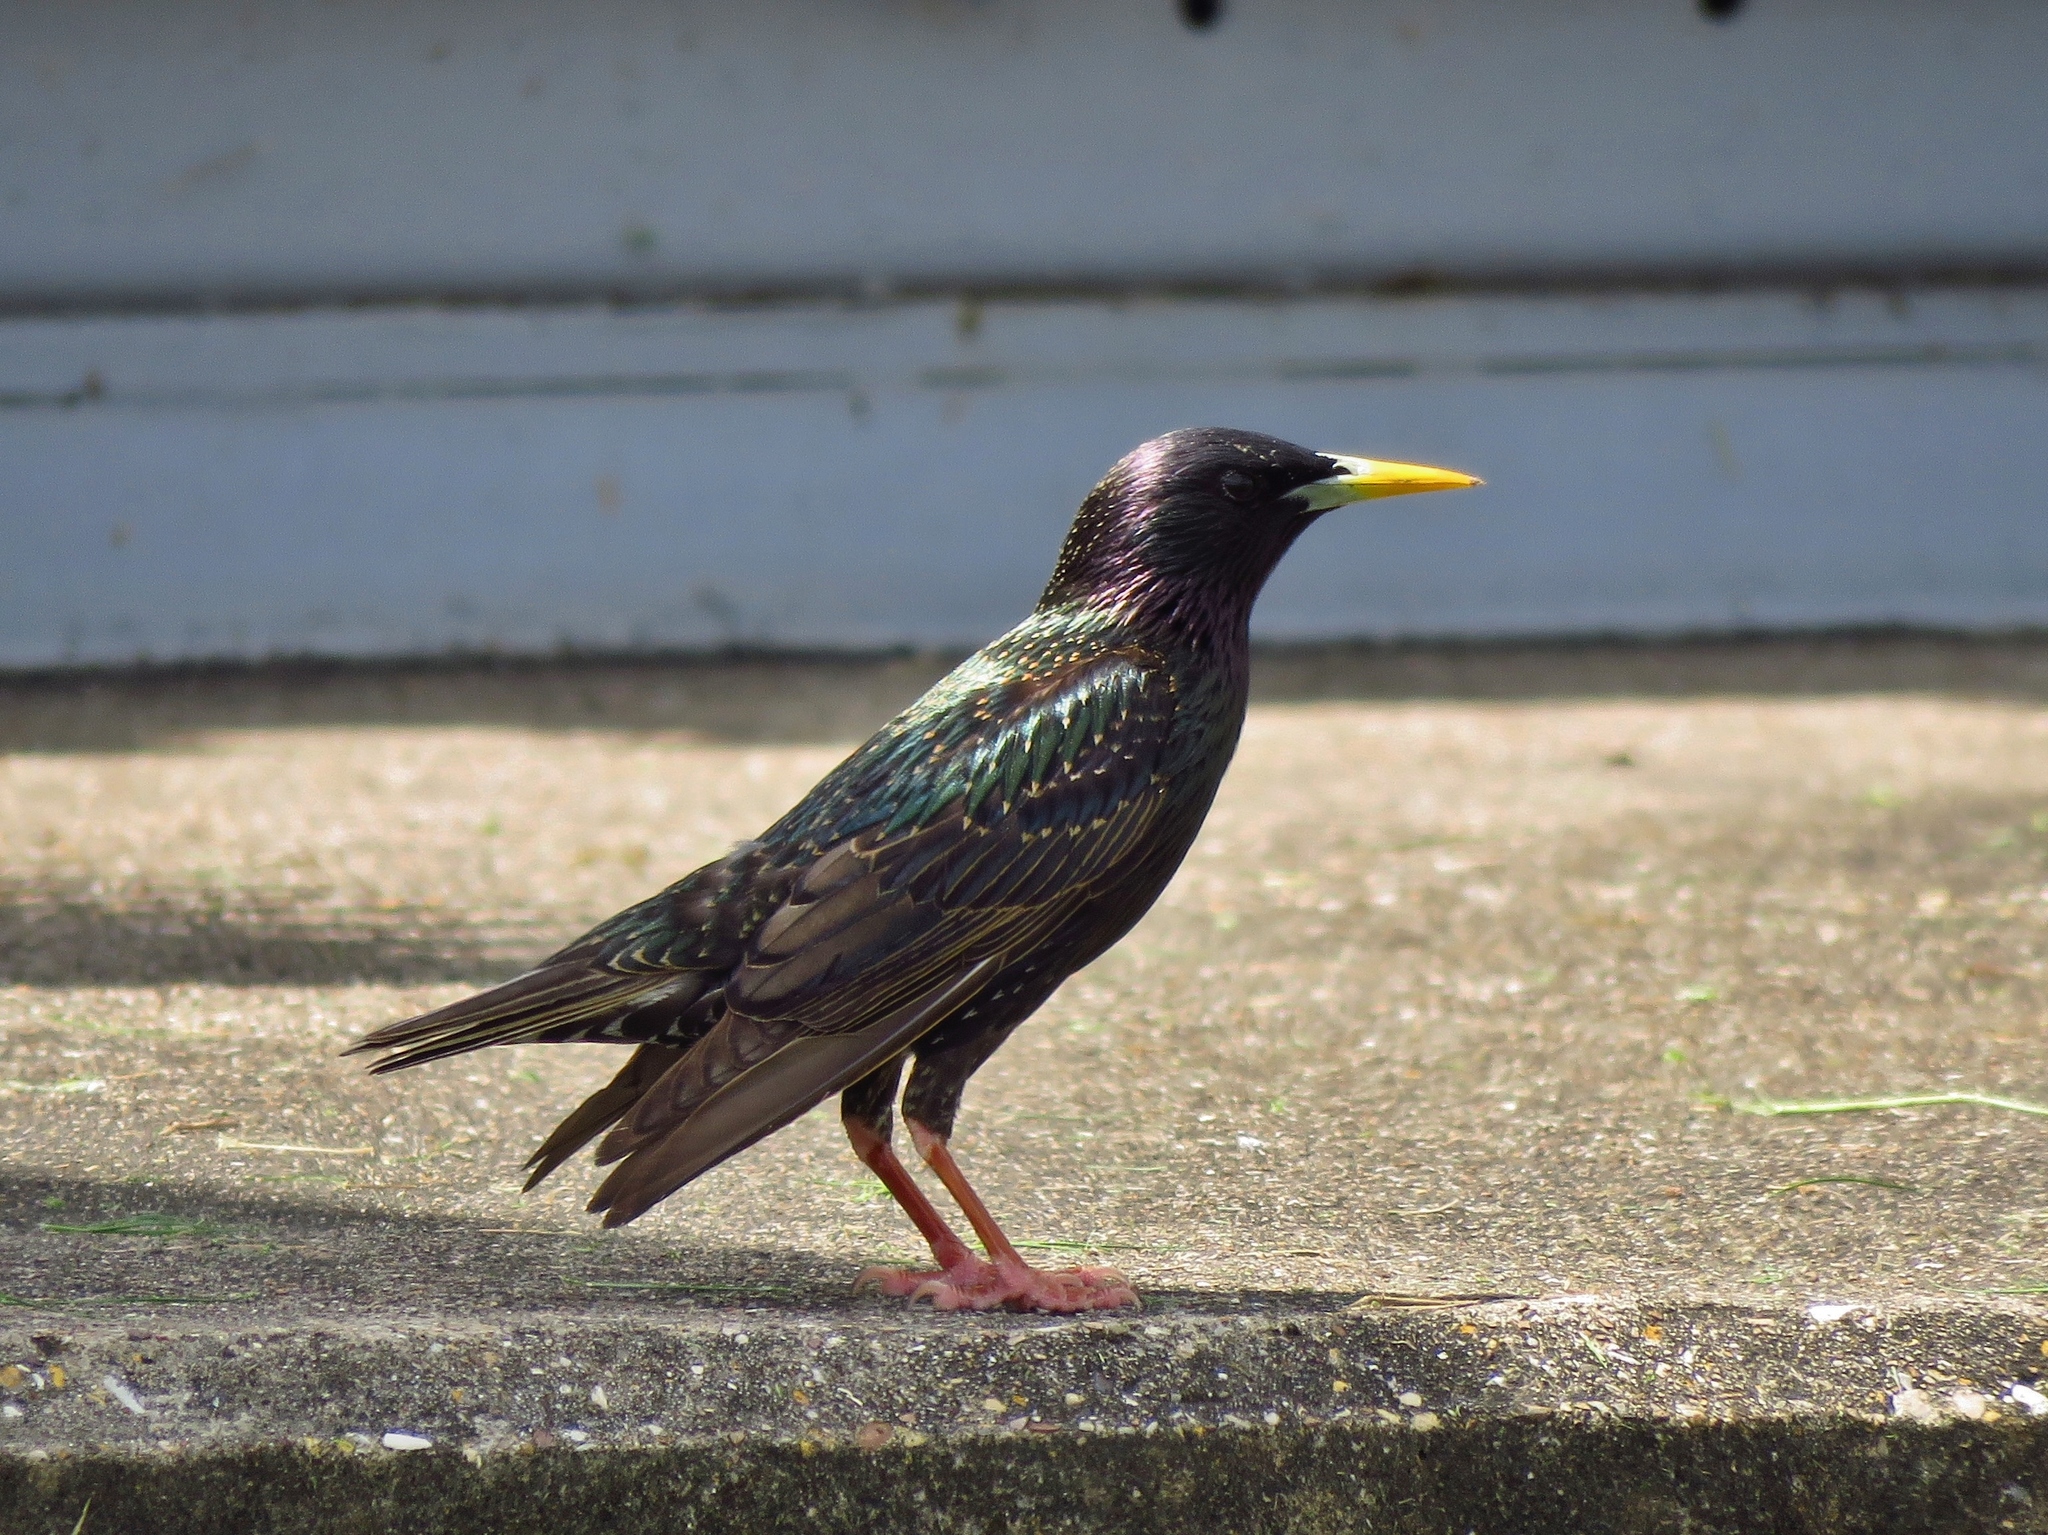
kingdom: Animalia
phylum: Chordata
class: Aves
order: Passeriformes
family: Sturnidae
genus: Sturnus
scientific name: Sturnus vulgaris
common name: Common starling
